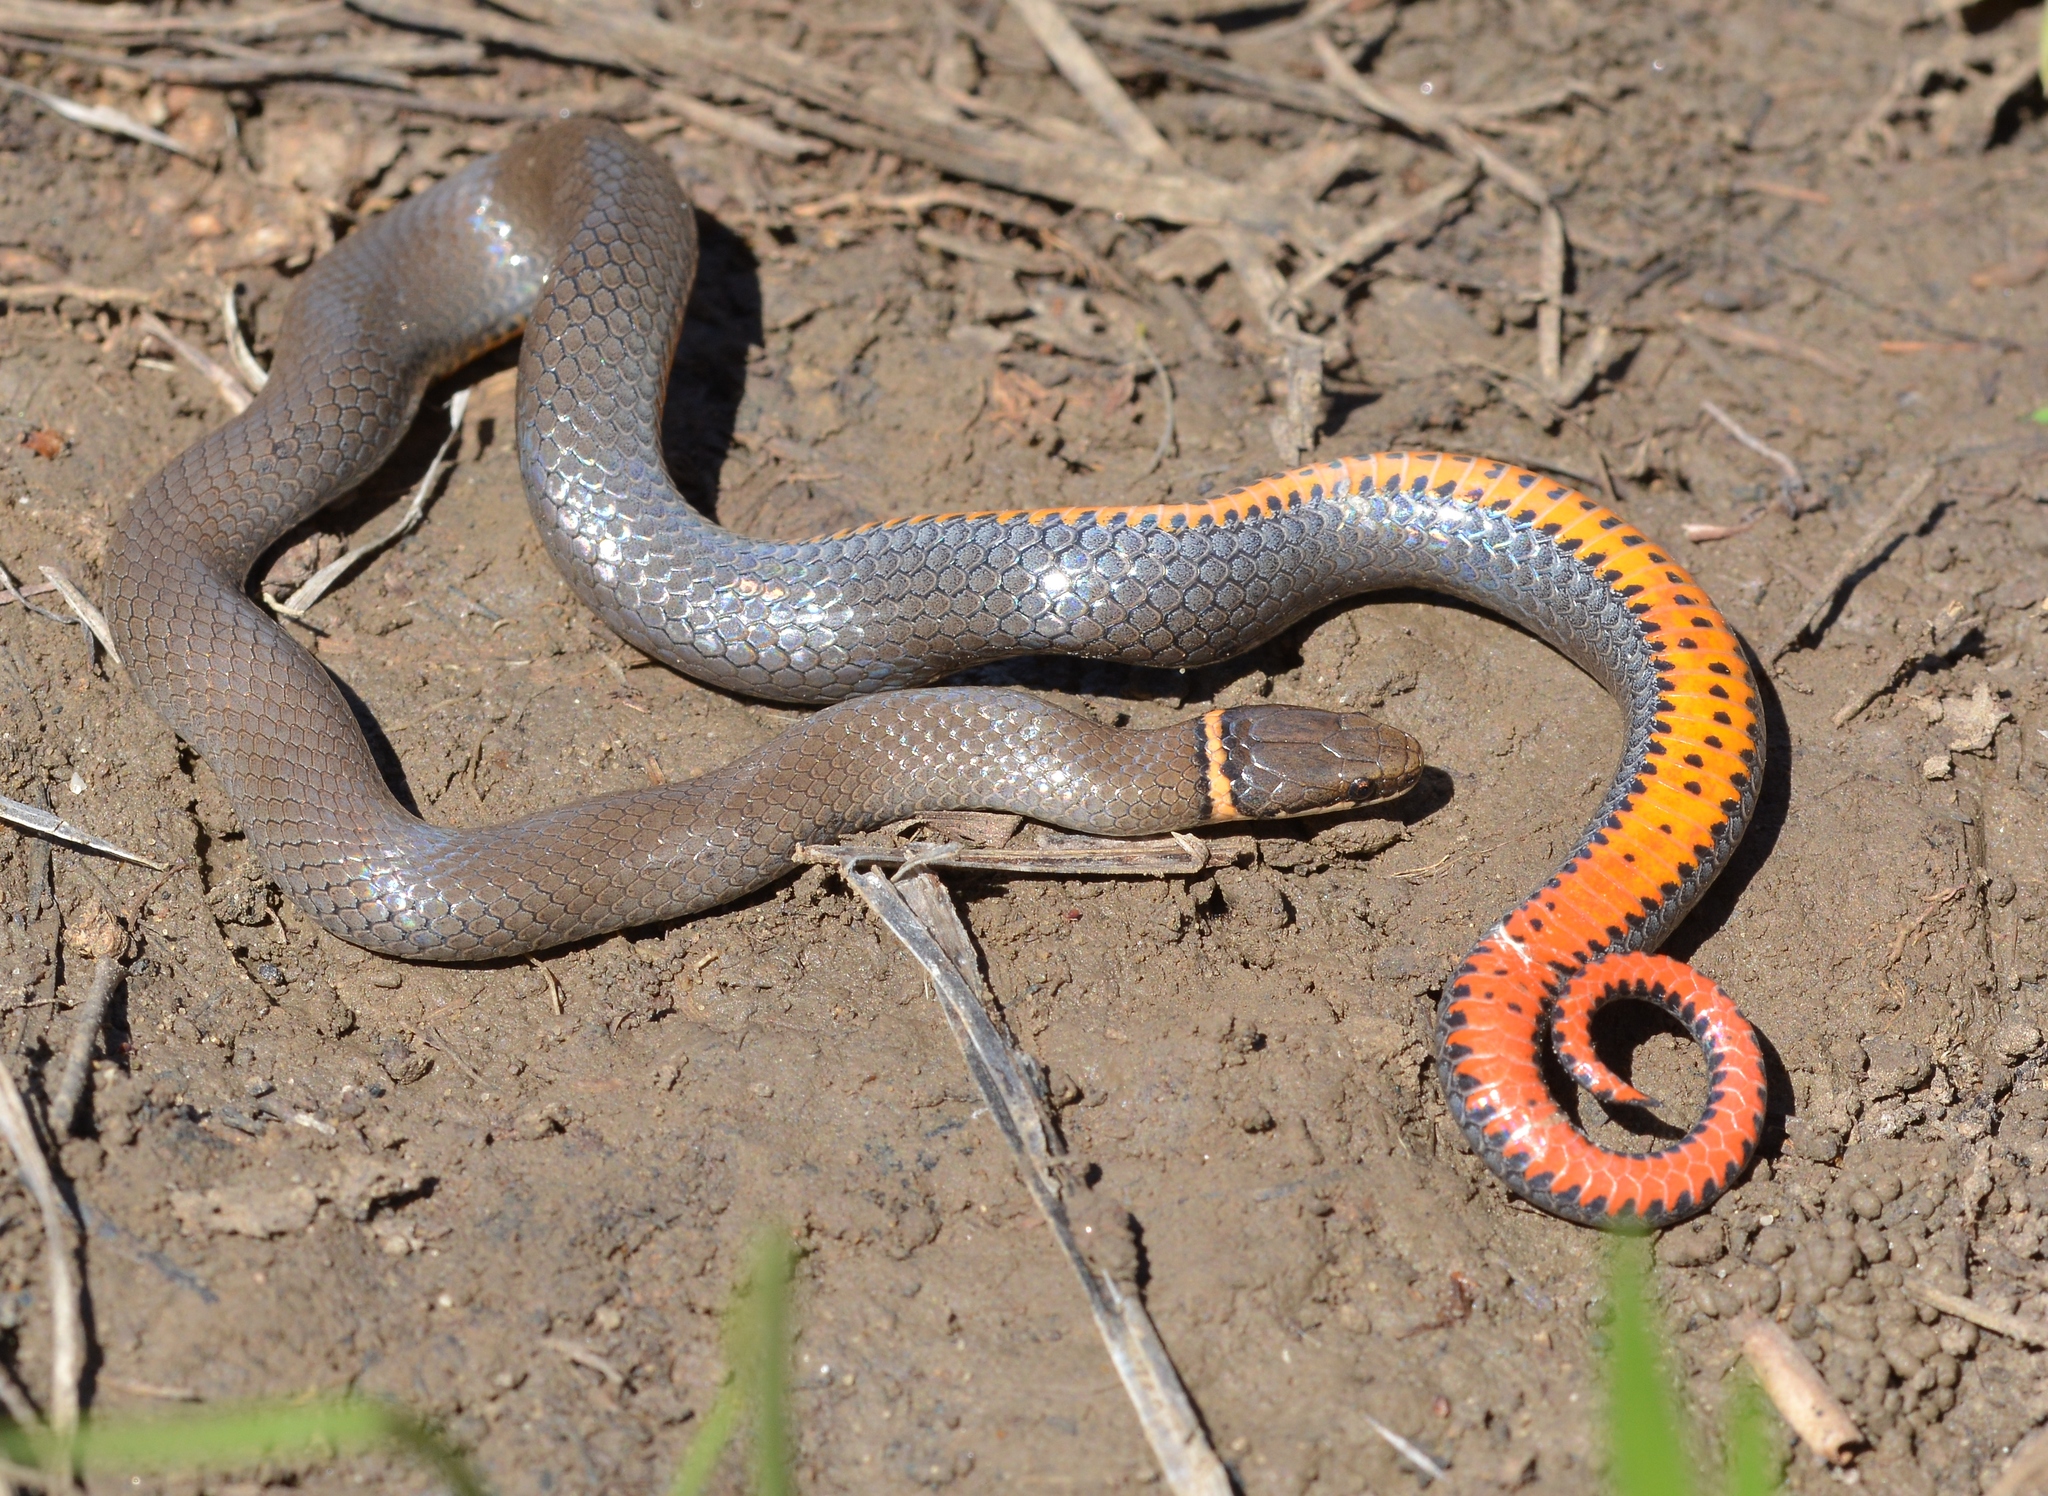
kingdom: Animalia
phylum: Chordata
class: Squamata
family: Colubridae
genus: Diadophis
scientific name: Diadophis punctatus
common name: Ringneck snake
